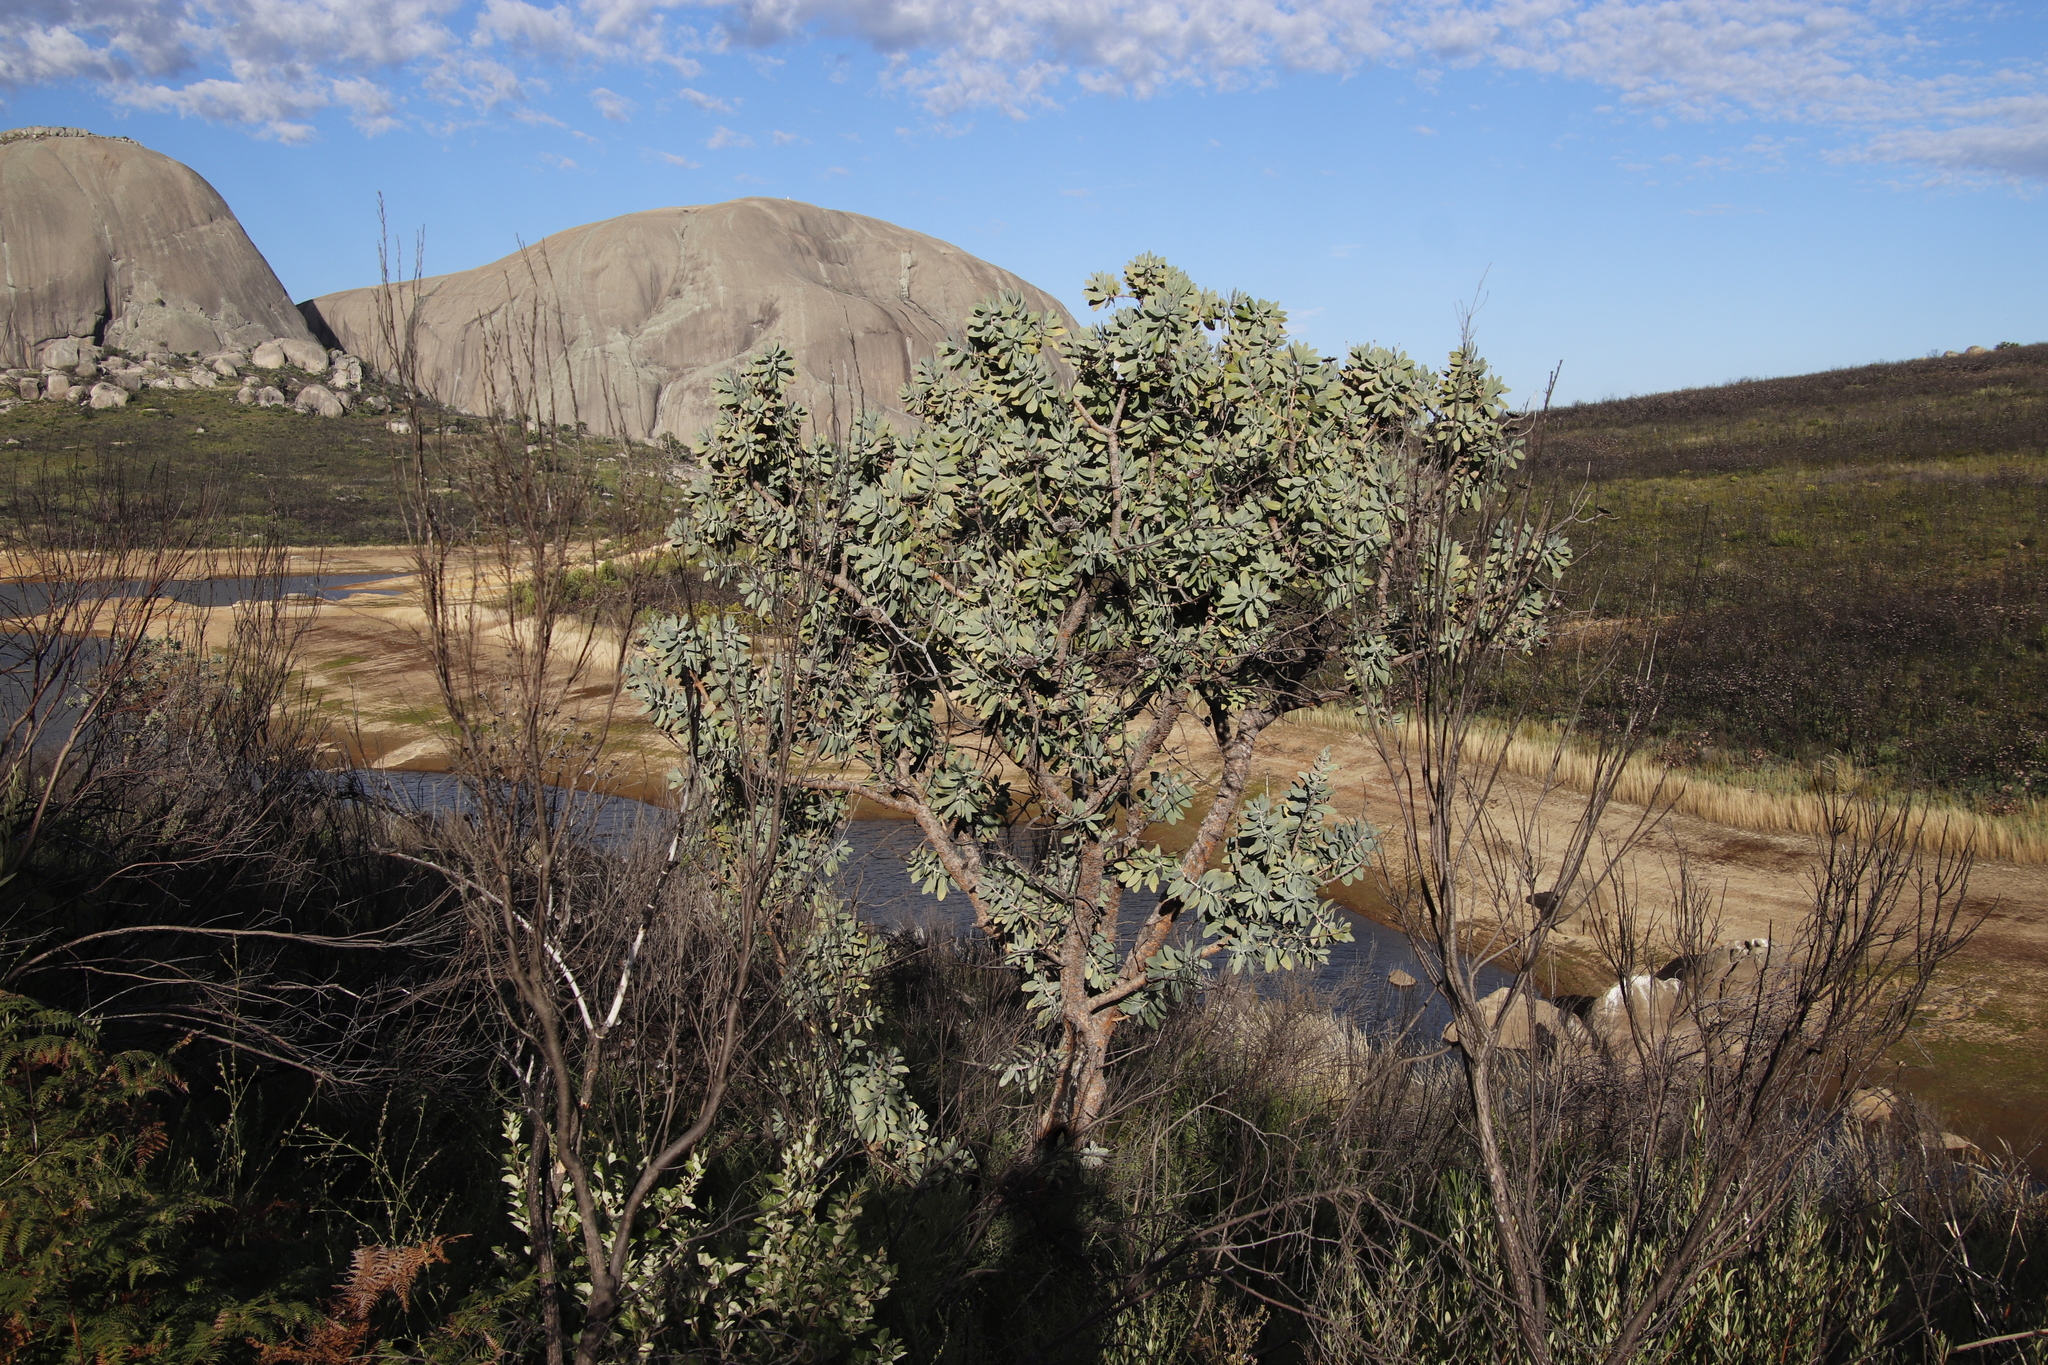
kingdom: Plantae
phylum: Tracheophyta
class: Magnoliopsida
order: Proteales
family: Proteaceae
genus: Protea
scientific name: Protea nitida
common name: Tree protea
